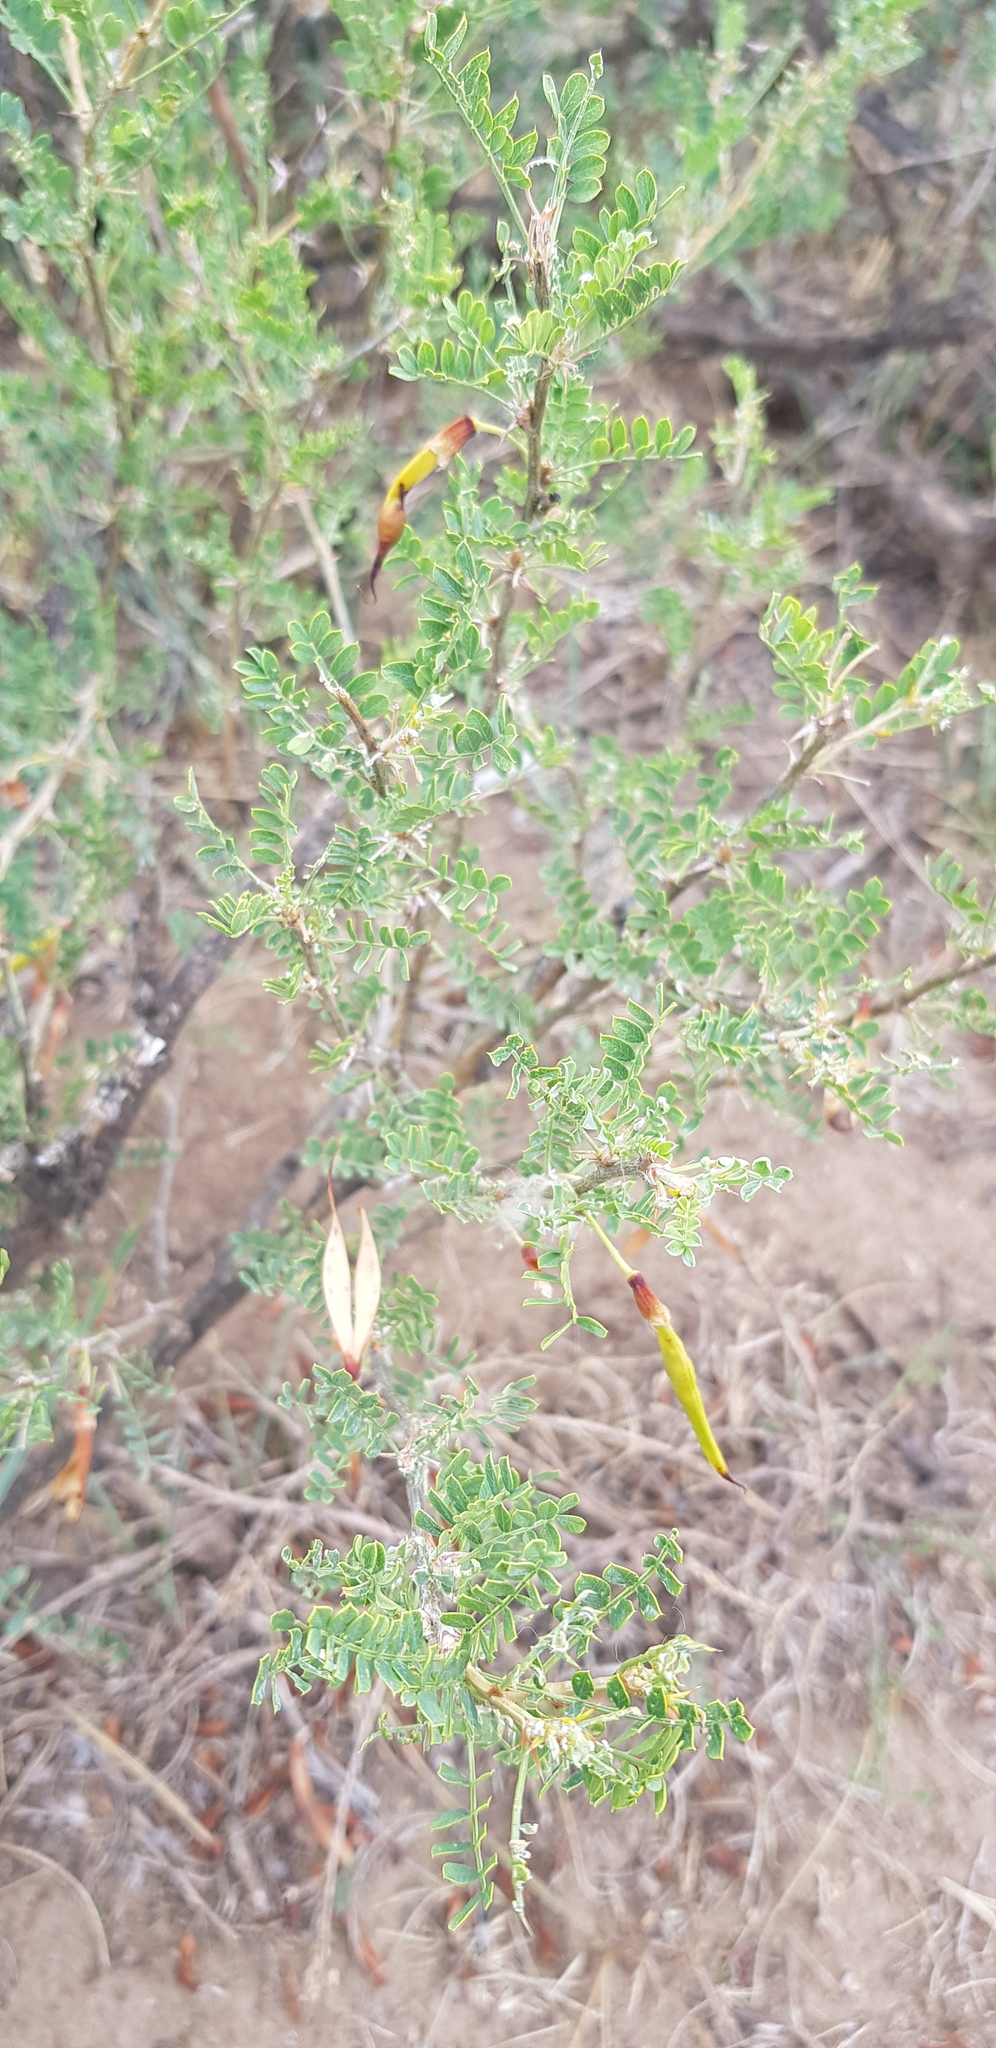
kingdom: Plantae
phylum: Tracheophyta
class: Magnoliopsida
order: Fabales
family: Fabaceae
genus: Caragana
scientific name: Caragana microphylla
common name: Littleleaf peashrub
